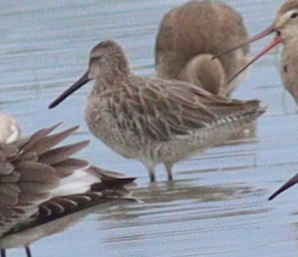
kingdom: Animalia
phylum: Chordata
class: Aves
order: Charadriiformes
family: Scolopacidae
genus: Limnodromus
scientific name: Limnodromus semipalmatus
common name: Asian dowitcher
